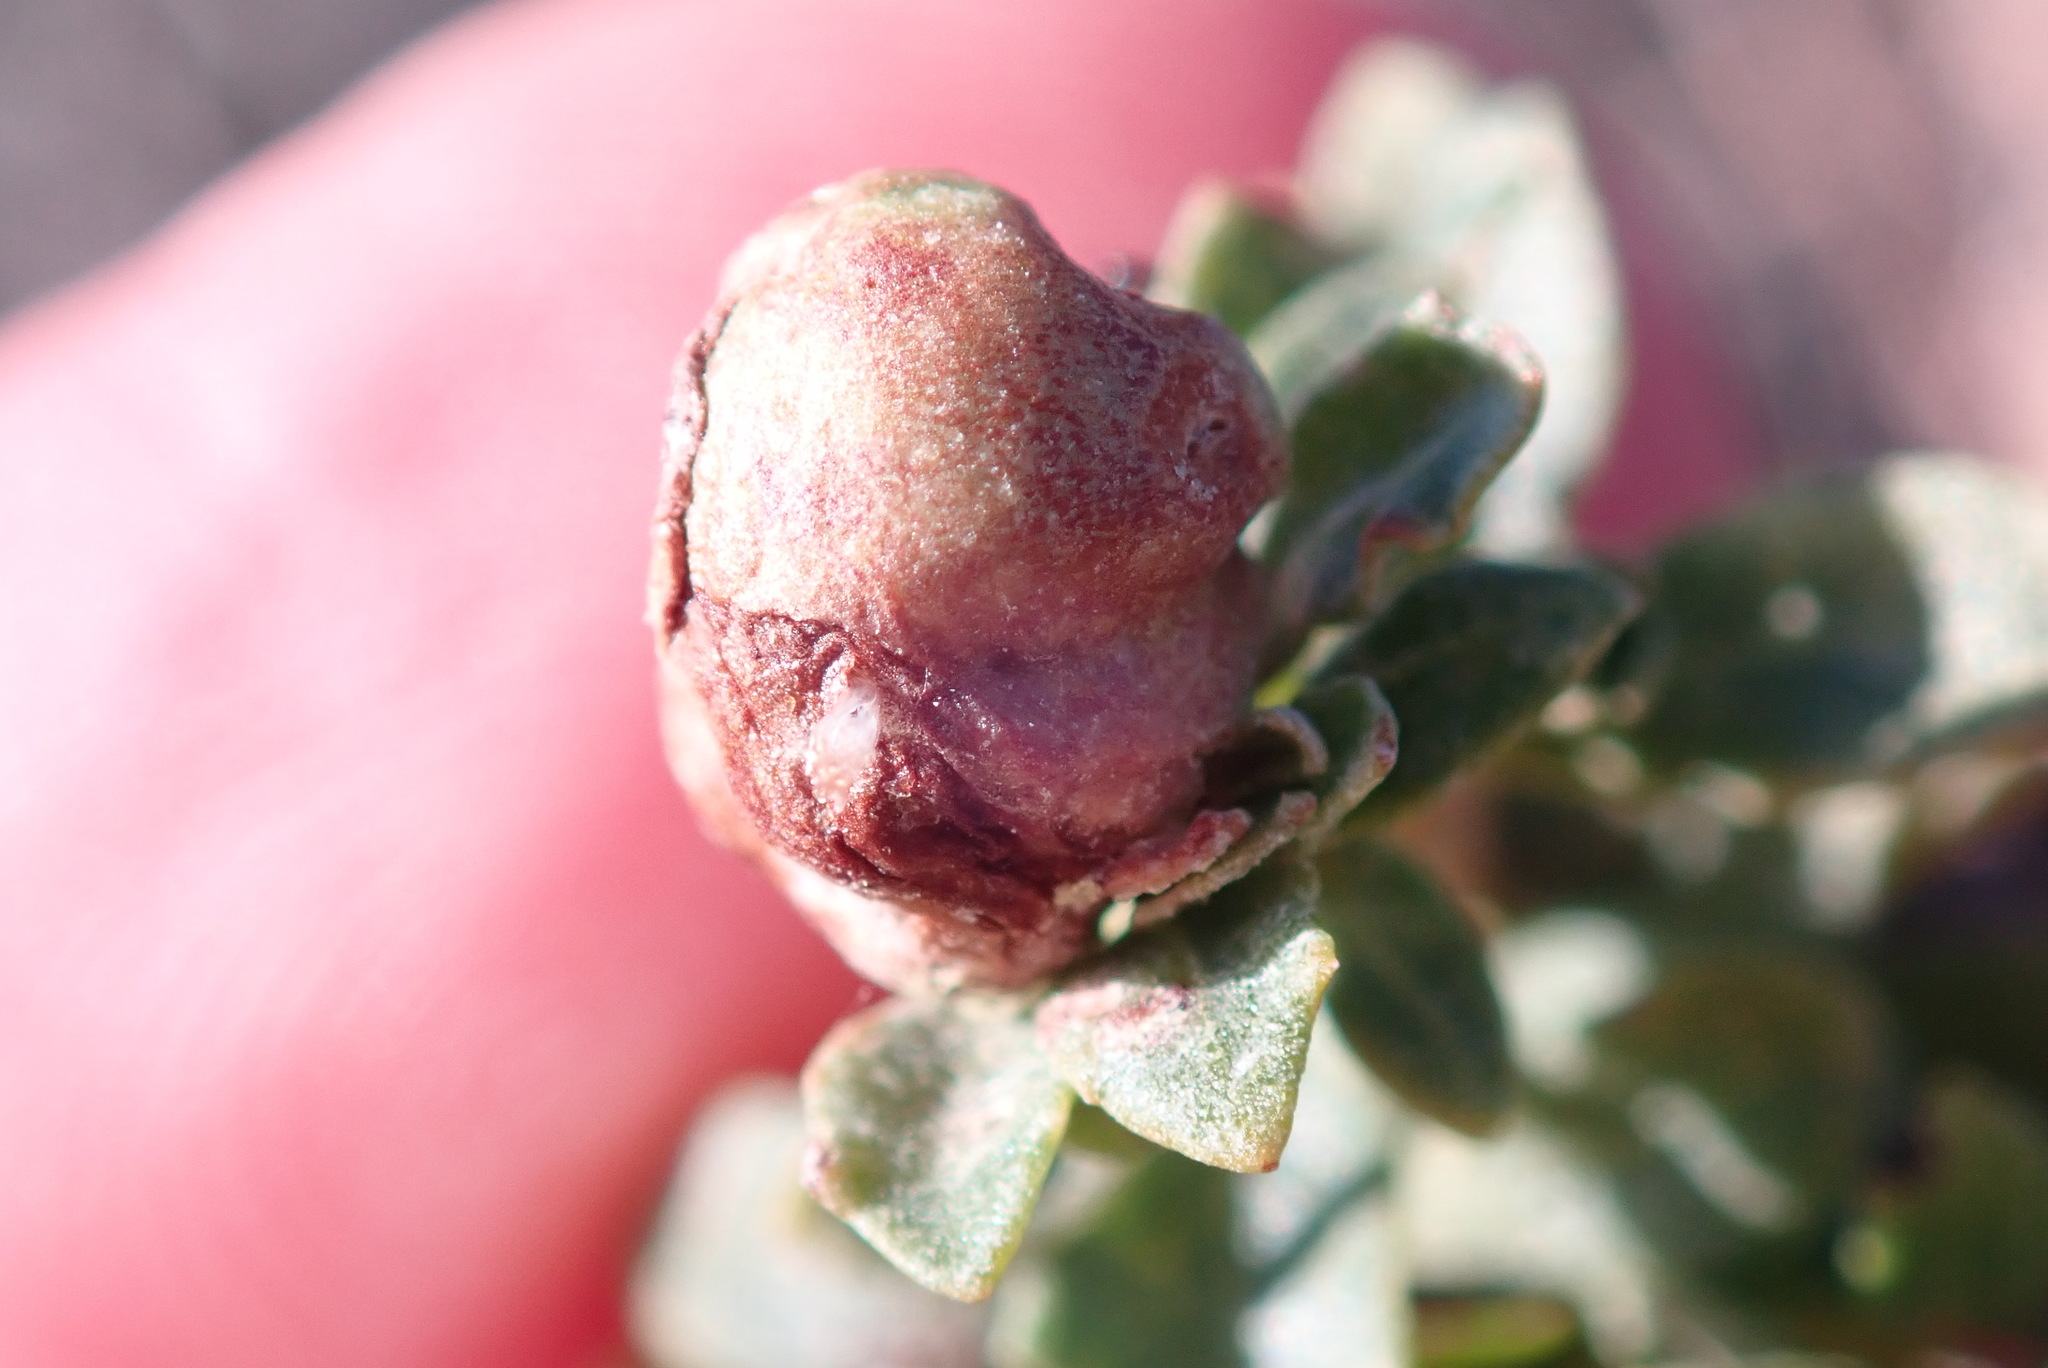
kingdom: Animalia
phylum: Arthropoda
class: Insecta
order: Diptera
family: Cecidomyiidae
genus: Rhopalomyia
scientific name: Rhopalomyia californica
